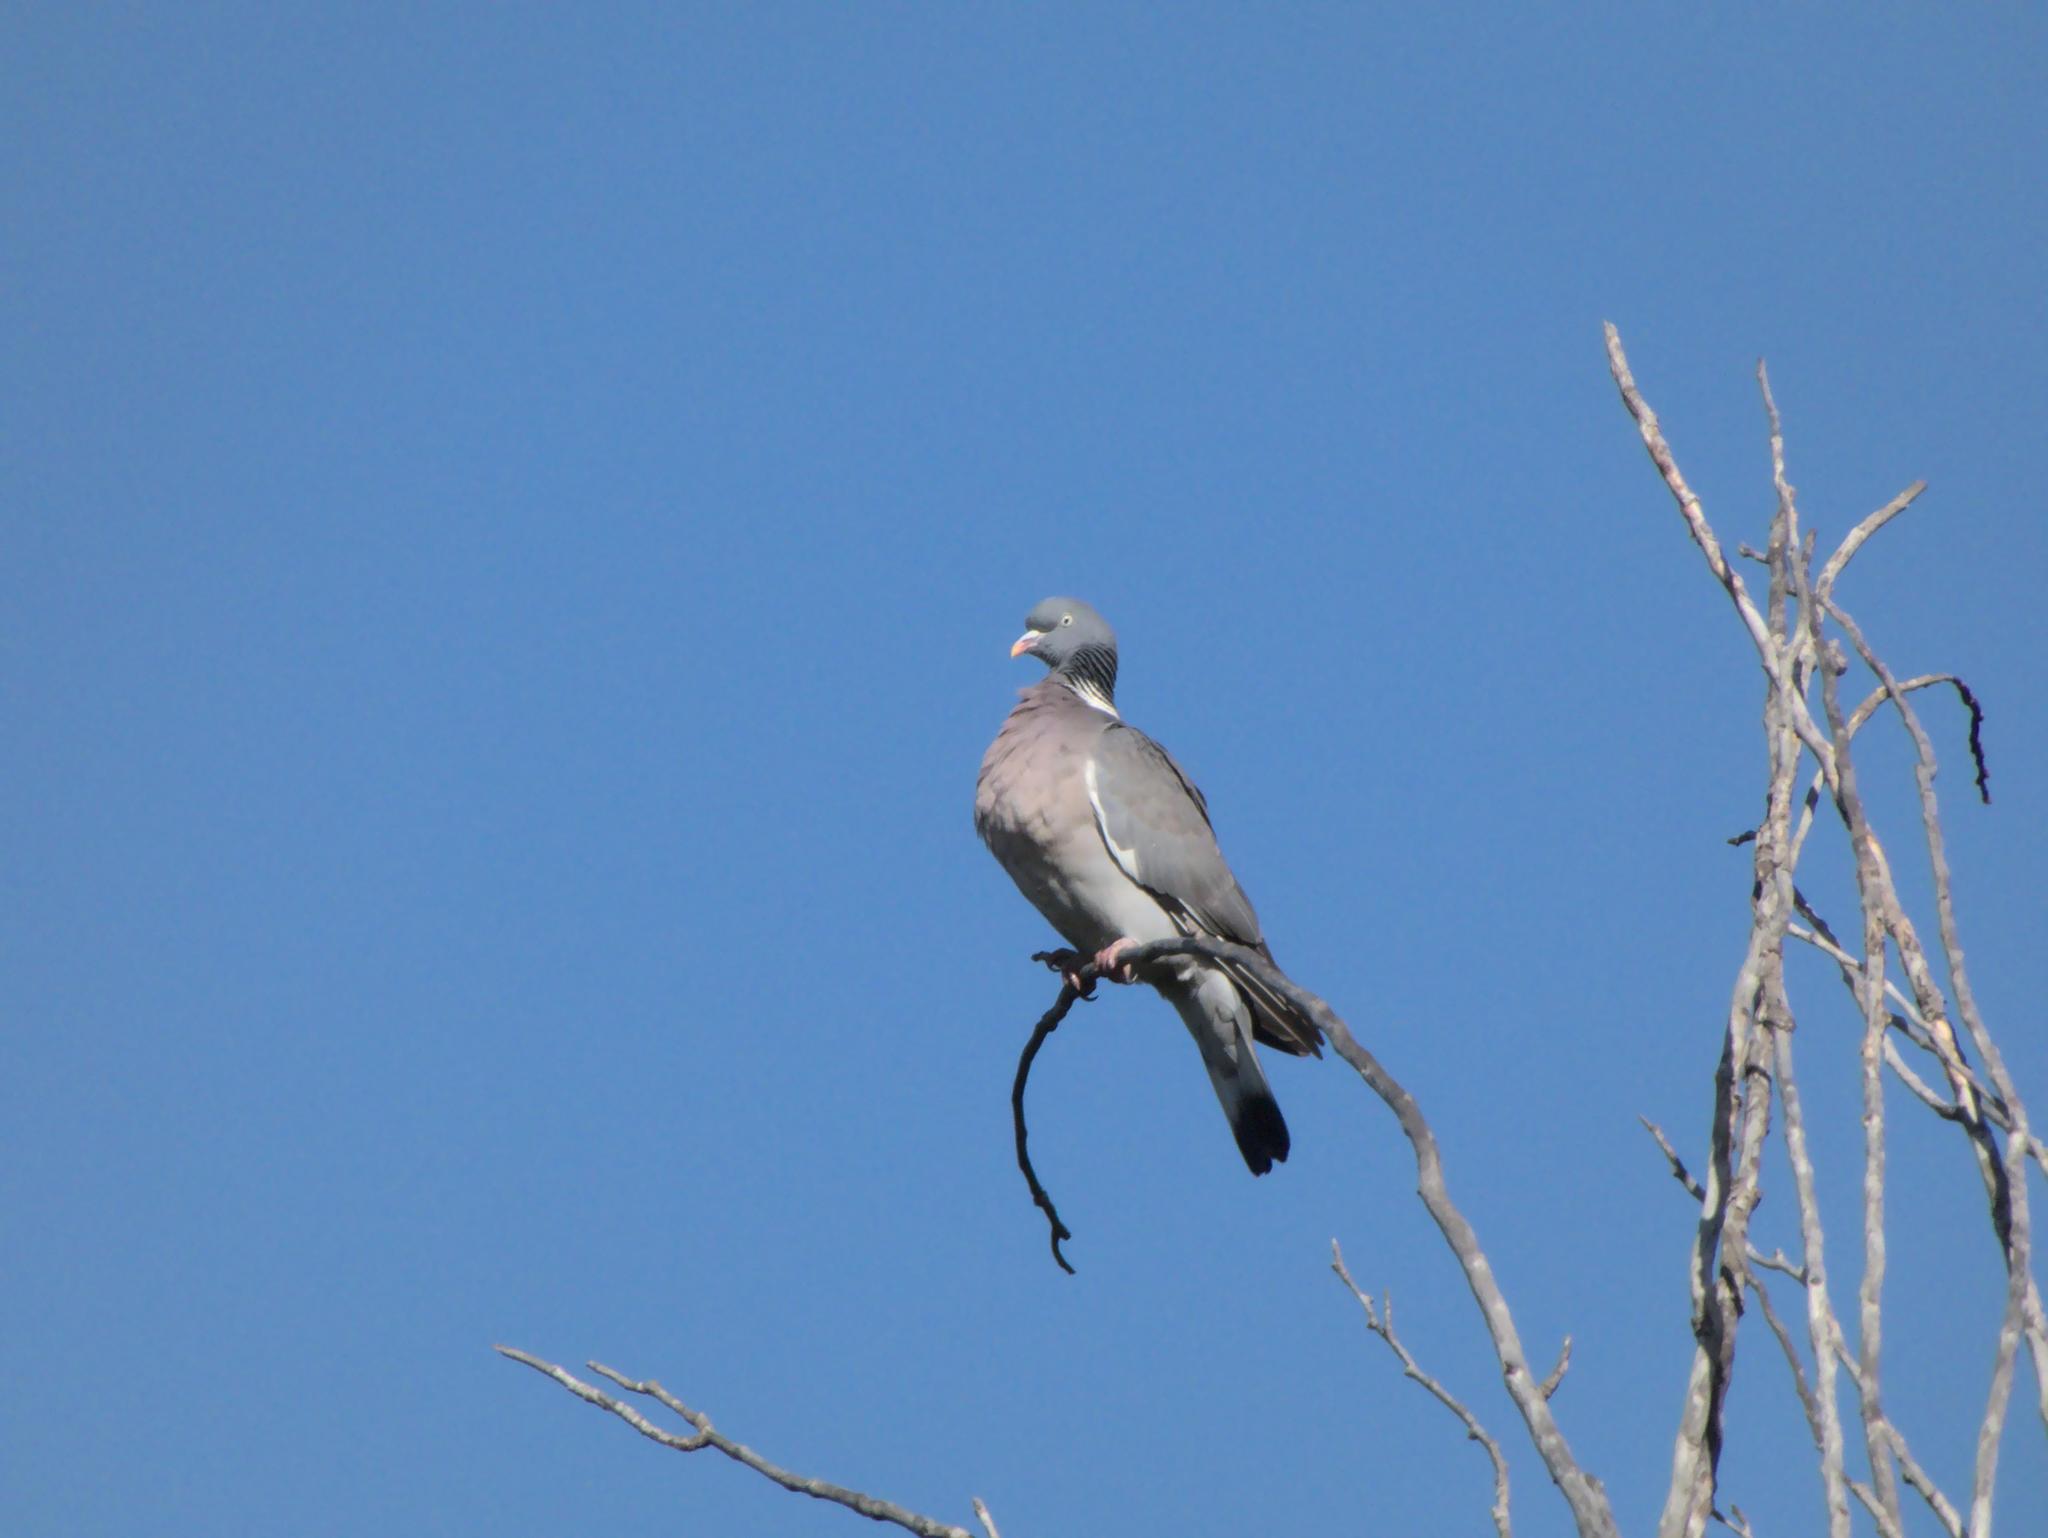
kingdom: Animalia
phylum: Chordata
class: Aves
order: Columbiformes
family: Columbidae
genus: Columba
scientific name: Columba palumbus
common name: Common wood pigeon
